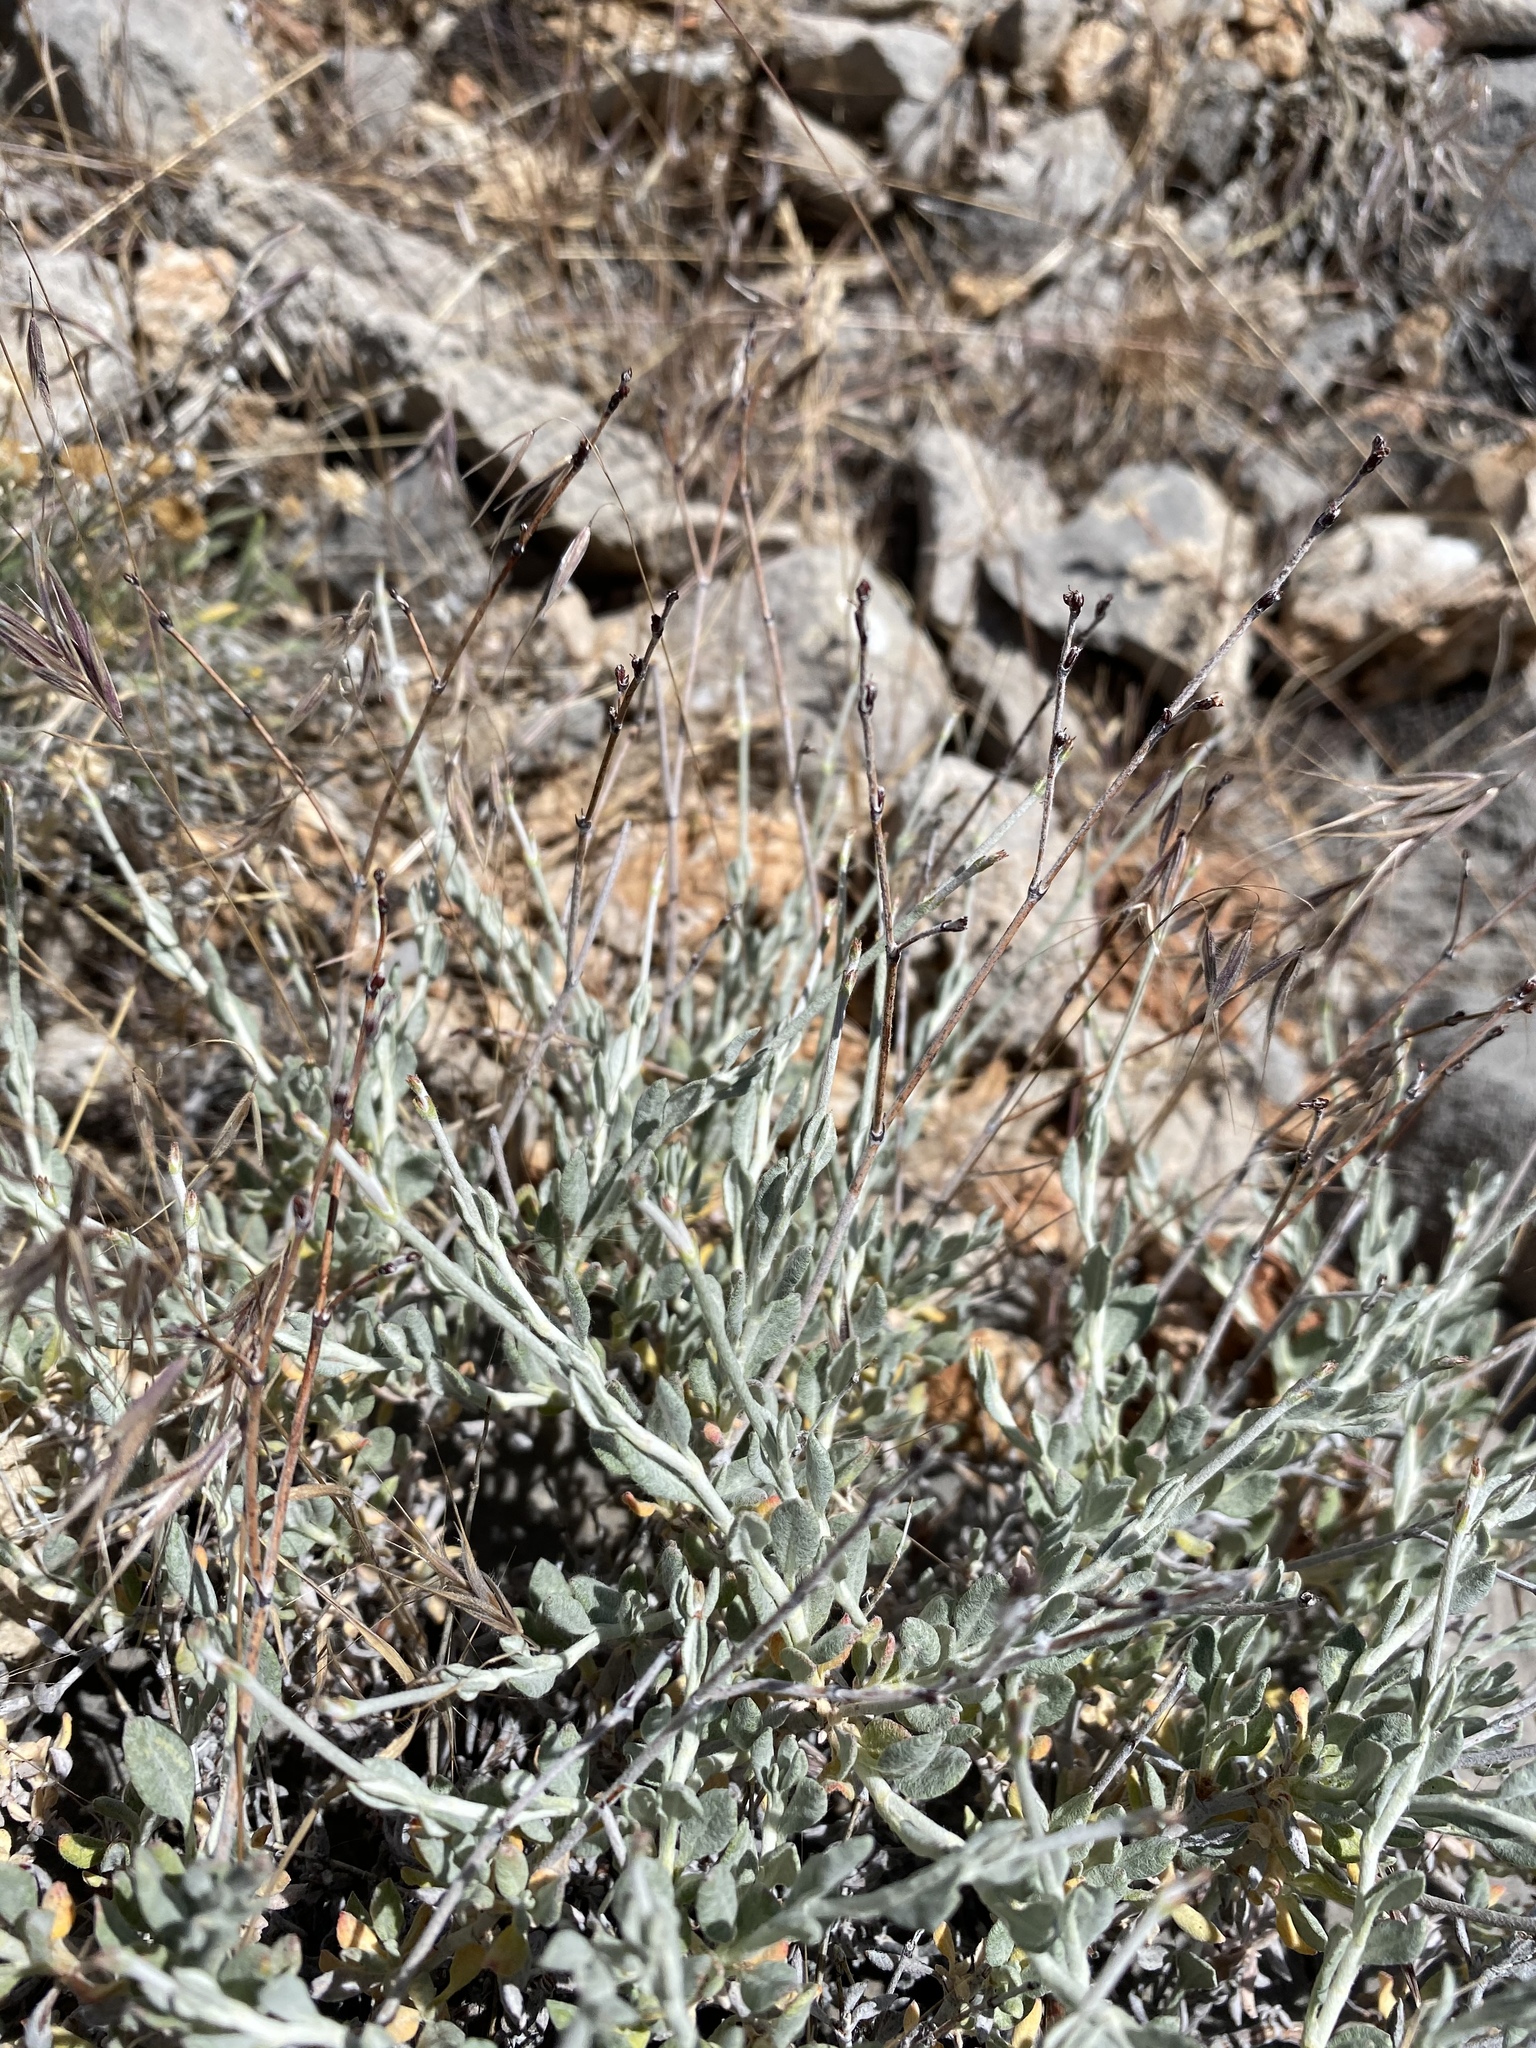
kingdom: Plantae
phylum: Tracheophyta
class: Magnoliopsida
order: Caryophyllales
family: Polygonaceae
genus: Eriogonum
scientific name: Eriogonum wrightii
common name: Bastard-sage
